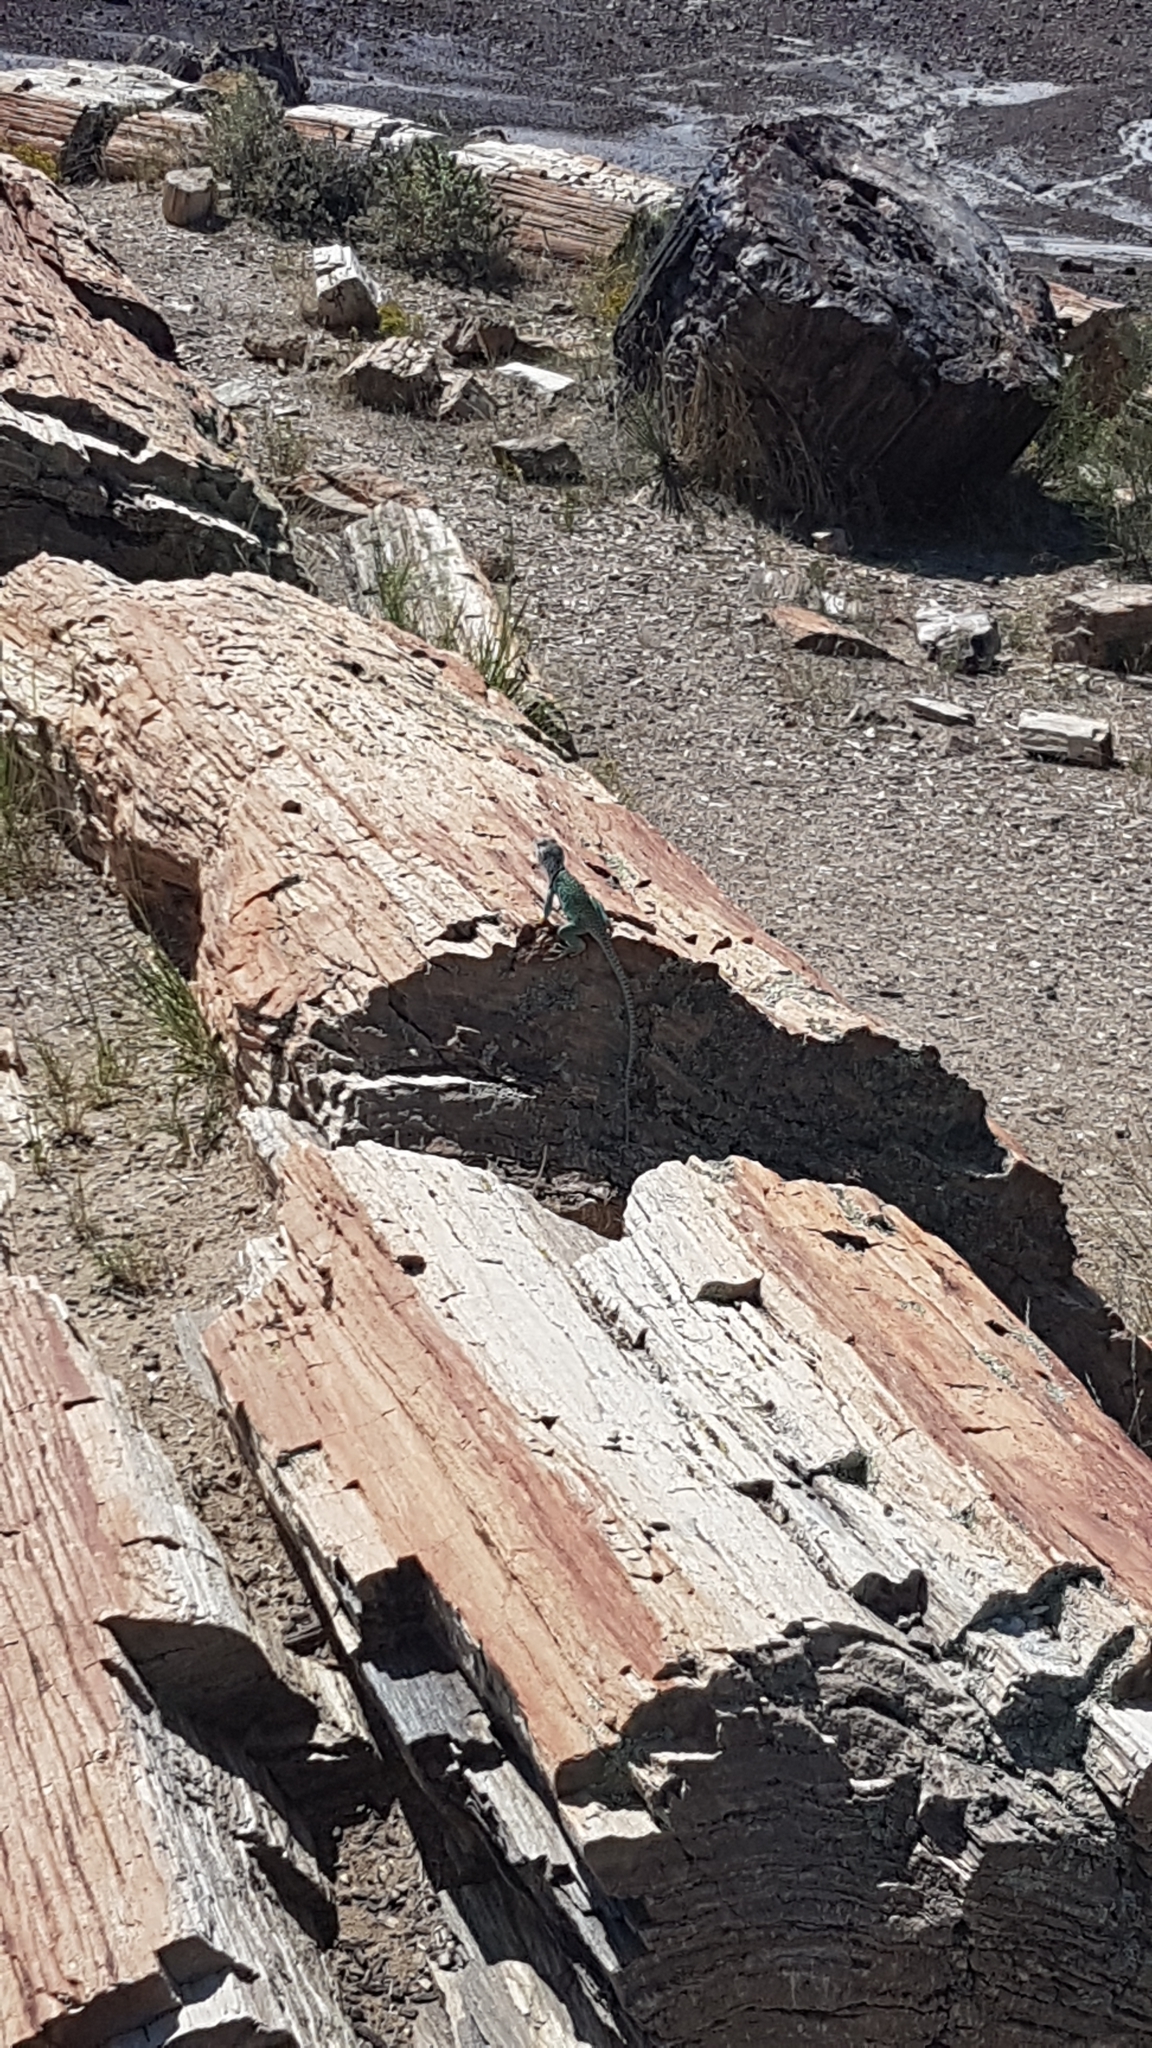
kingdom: Animalia
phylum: Chordata
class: Squamata
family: Crotaphytidae
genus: Crotaphytus
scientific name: Crotaphytus collaris
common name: Collared lizard
